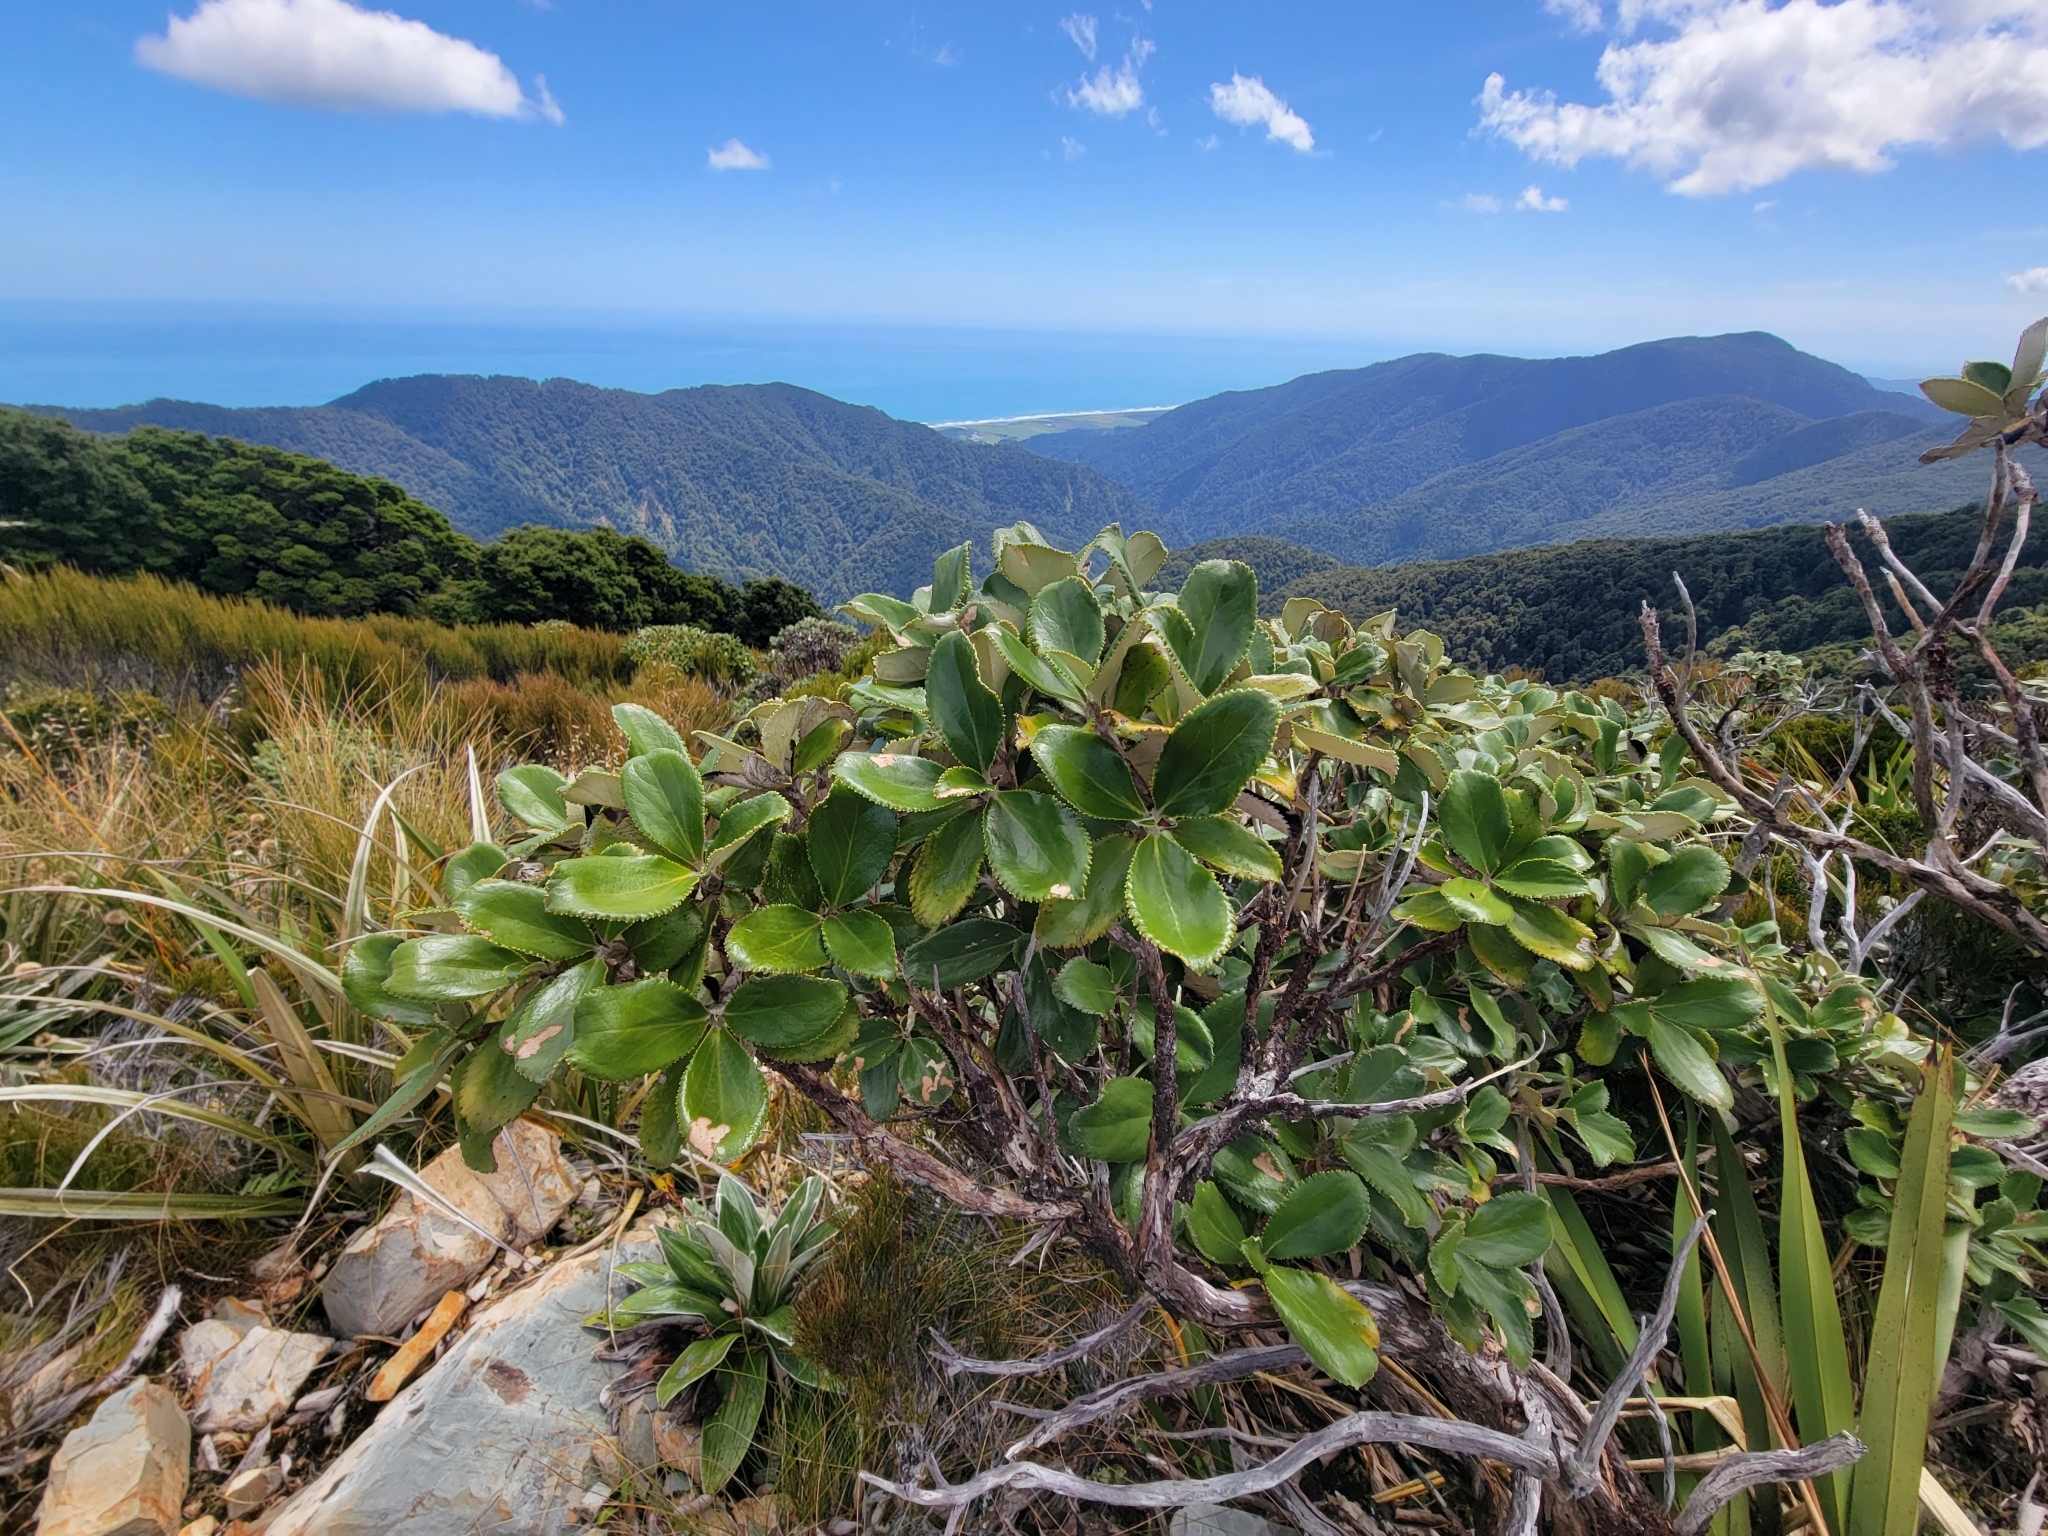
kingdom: Plantae
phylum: Tracheophyta
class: Magnoliopsida
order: Asterales
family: Asteraceae
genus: Macrolearia
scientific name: Macrolearia colensoi
